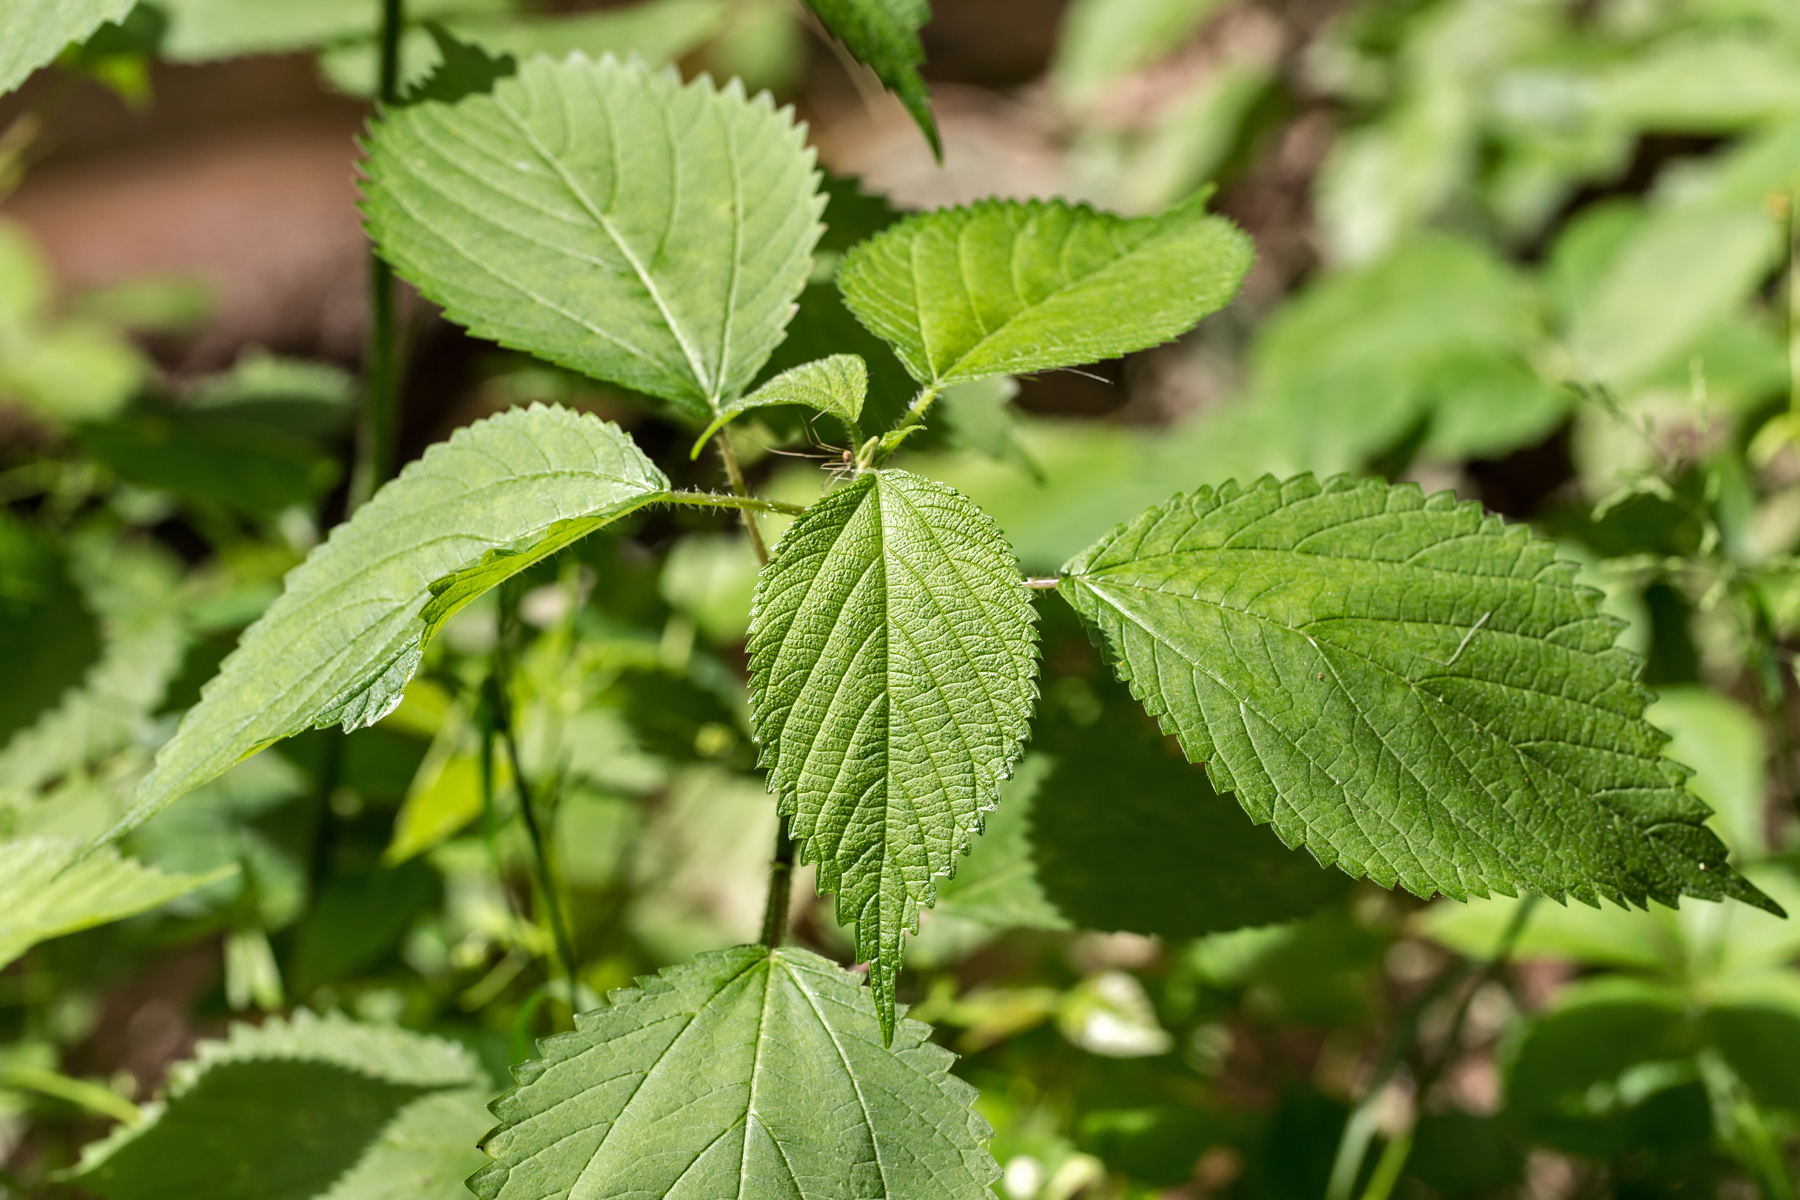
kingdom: Plantae
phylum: Tracheophyta
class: Magnoliopsida
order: Rosales
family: Urticaceae
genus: Laportea
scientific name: Laportea canadensis
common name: Canada nettle
